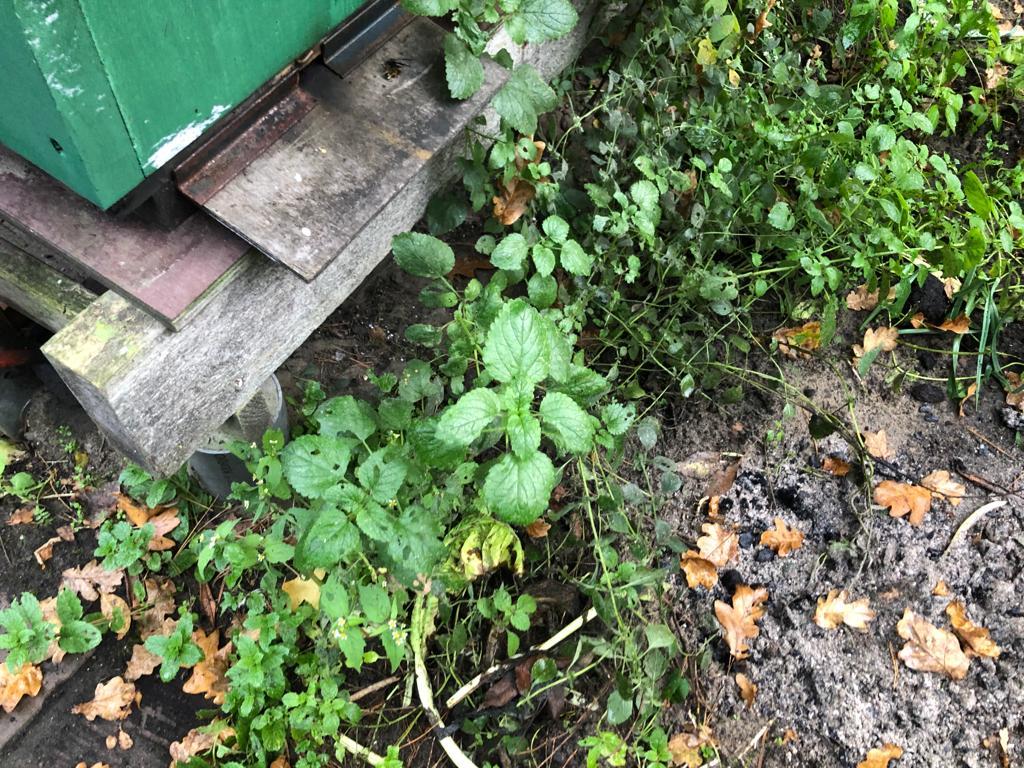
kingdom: Animalia
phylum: Arthropoda
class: Insecta
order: Hymenoptera
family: Vespidae
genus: Vespa
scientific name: Vespa velutina
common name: Asian hornet
